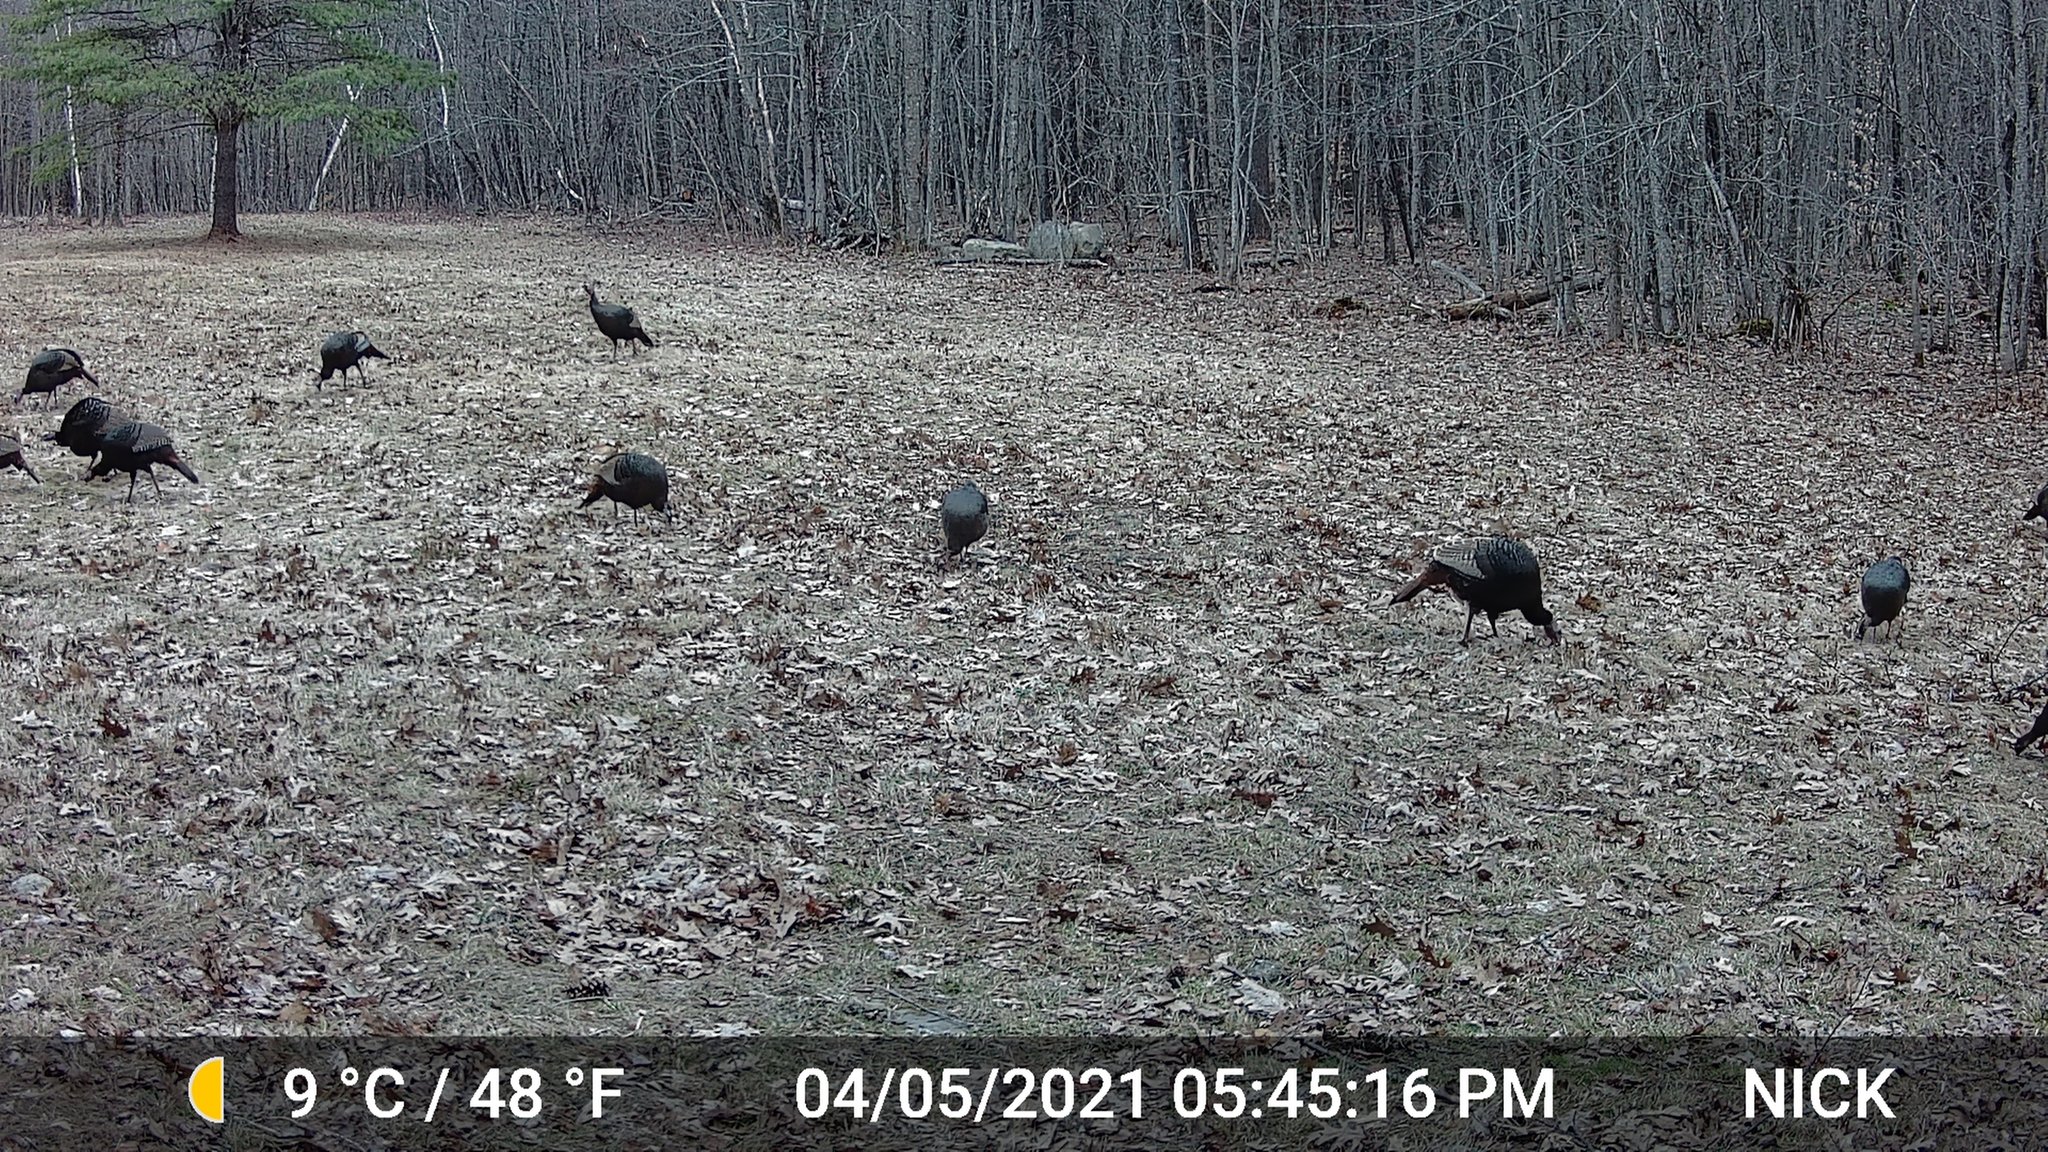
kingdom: Animalia
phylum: Chordata
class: Aves
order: Galliformes
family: Phasianidae
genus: Meleagris
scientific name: Meleagris gallopavo
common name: Wild turkey
